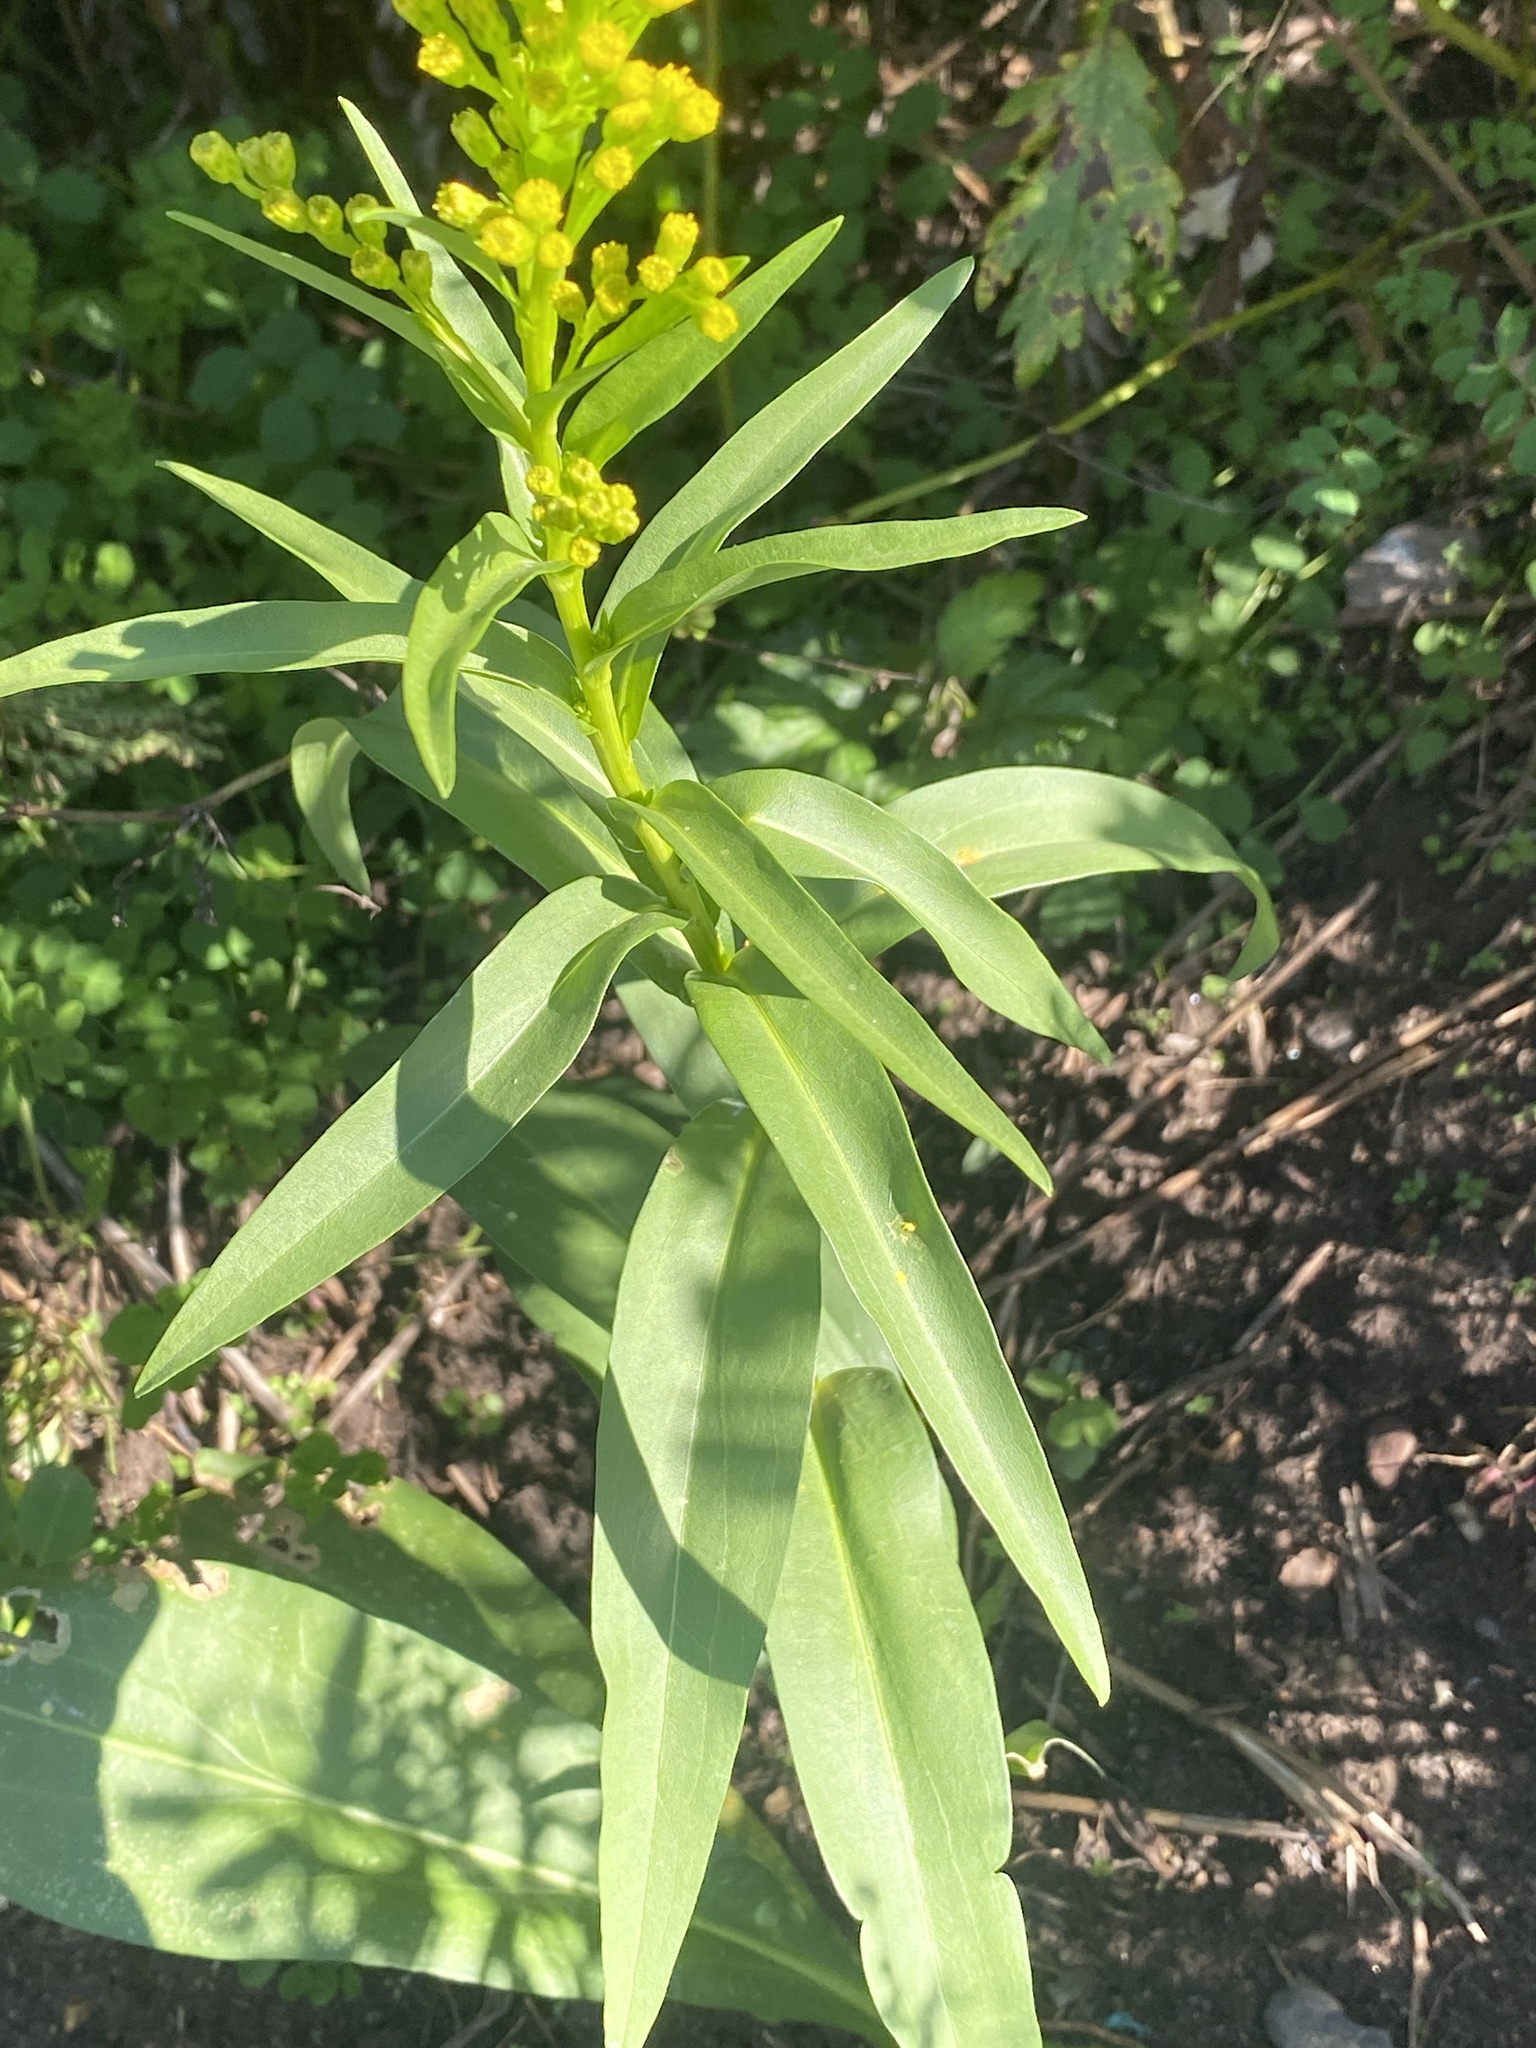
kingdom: Plantae
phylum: Tracheophyta
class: Magnoliopsida
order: Asterales
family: Asteraceae
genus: Solidago
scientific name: Solidago sempervirens
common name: Salt-marsh goldenrod
